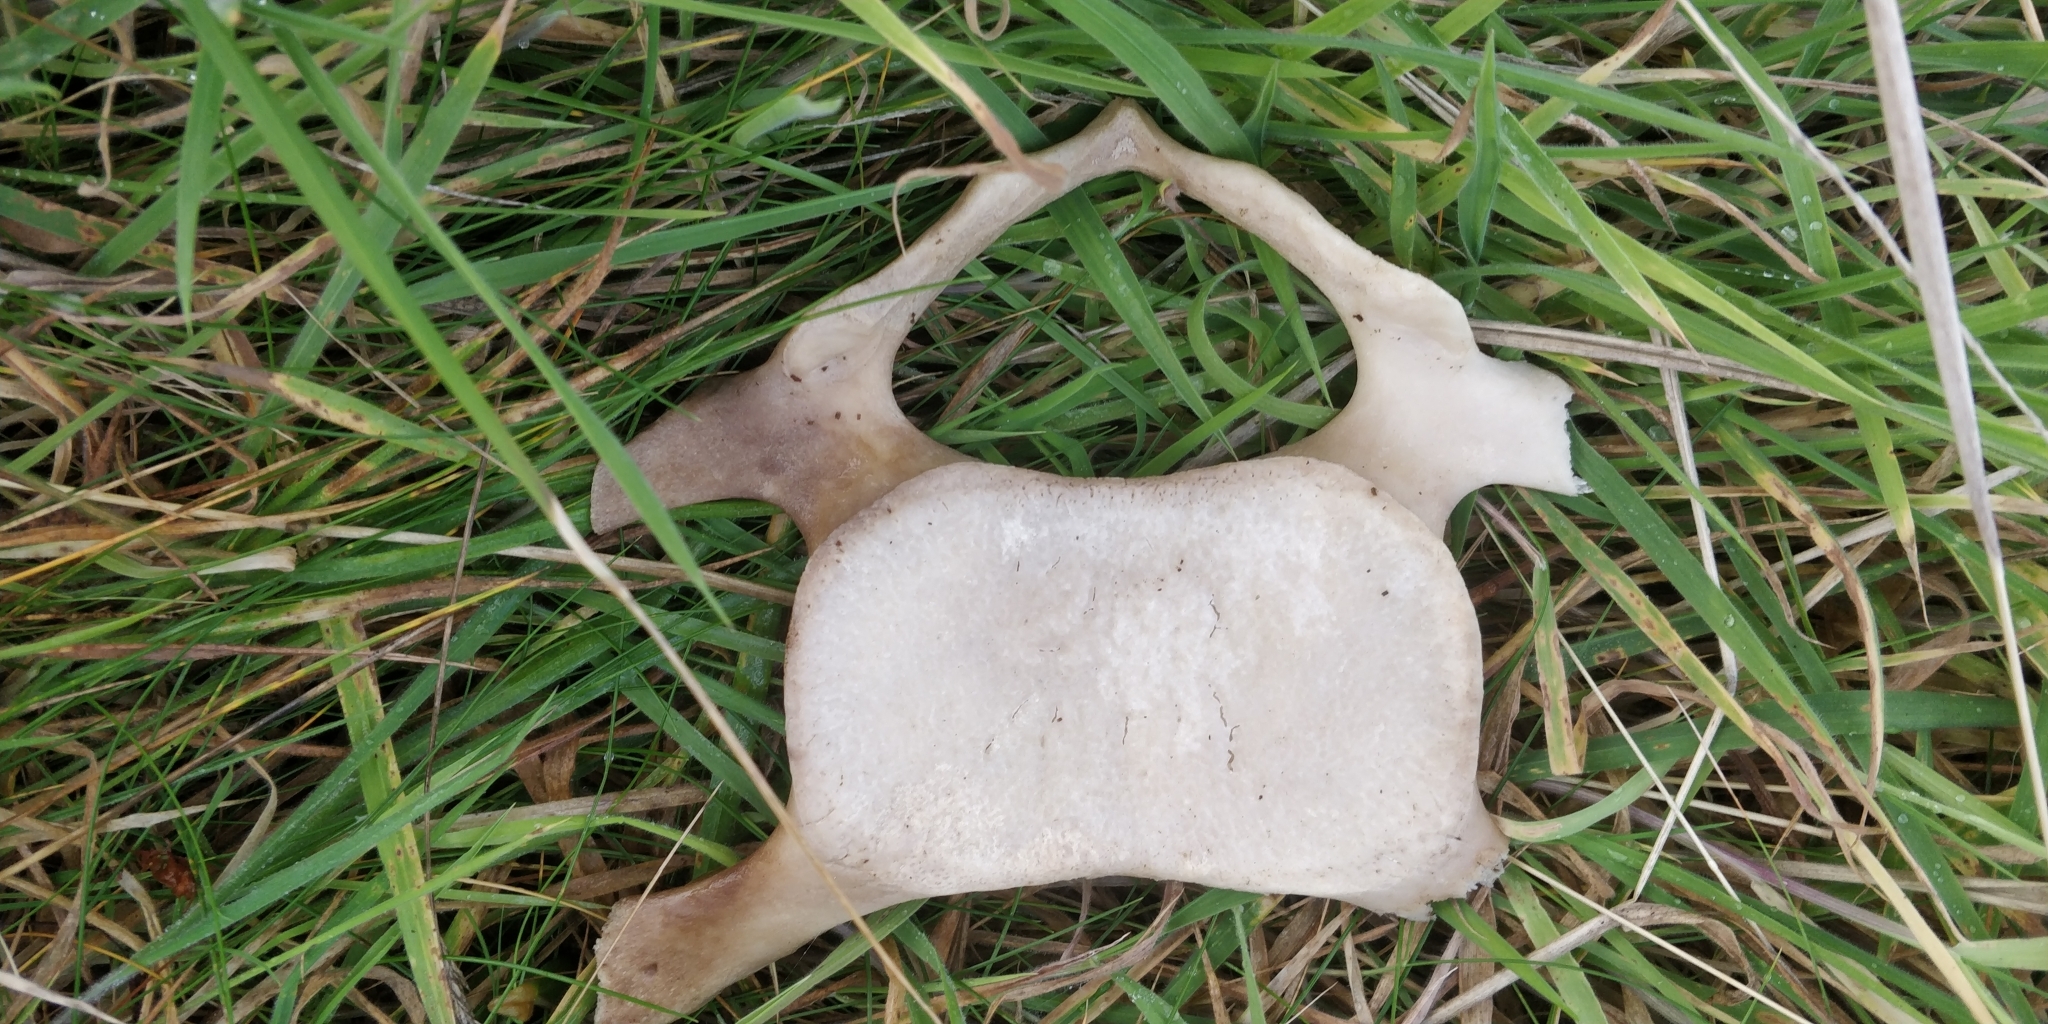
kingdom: Animalia
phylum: Chordata
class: Mammalia
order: Cetacea
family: Balaenopteridae
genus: Balaenoptera
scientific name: Balaenoptera acutorostrata
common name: Common minke whale
